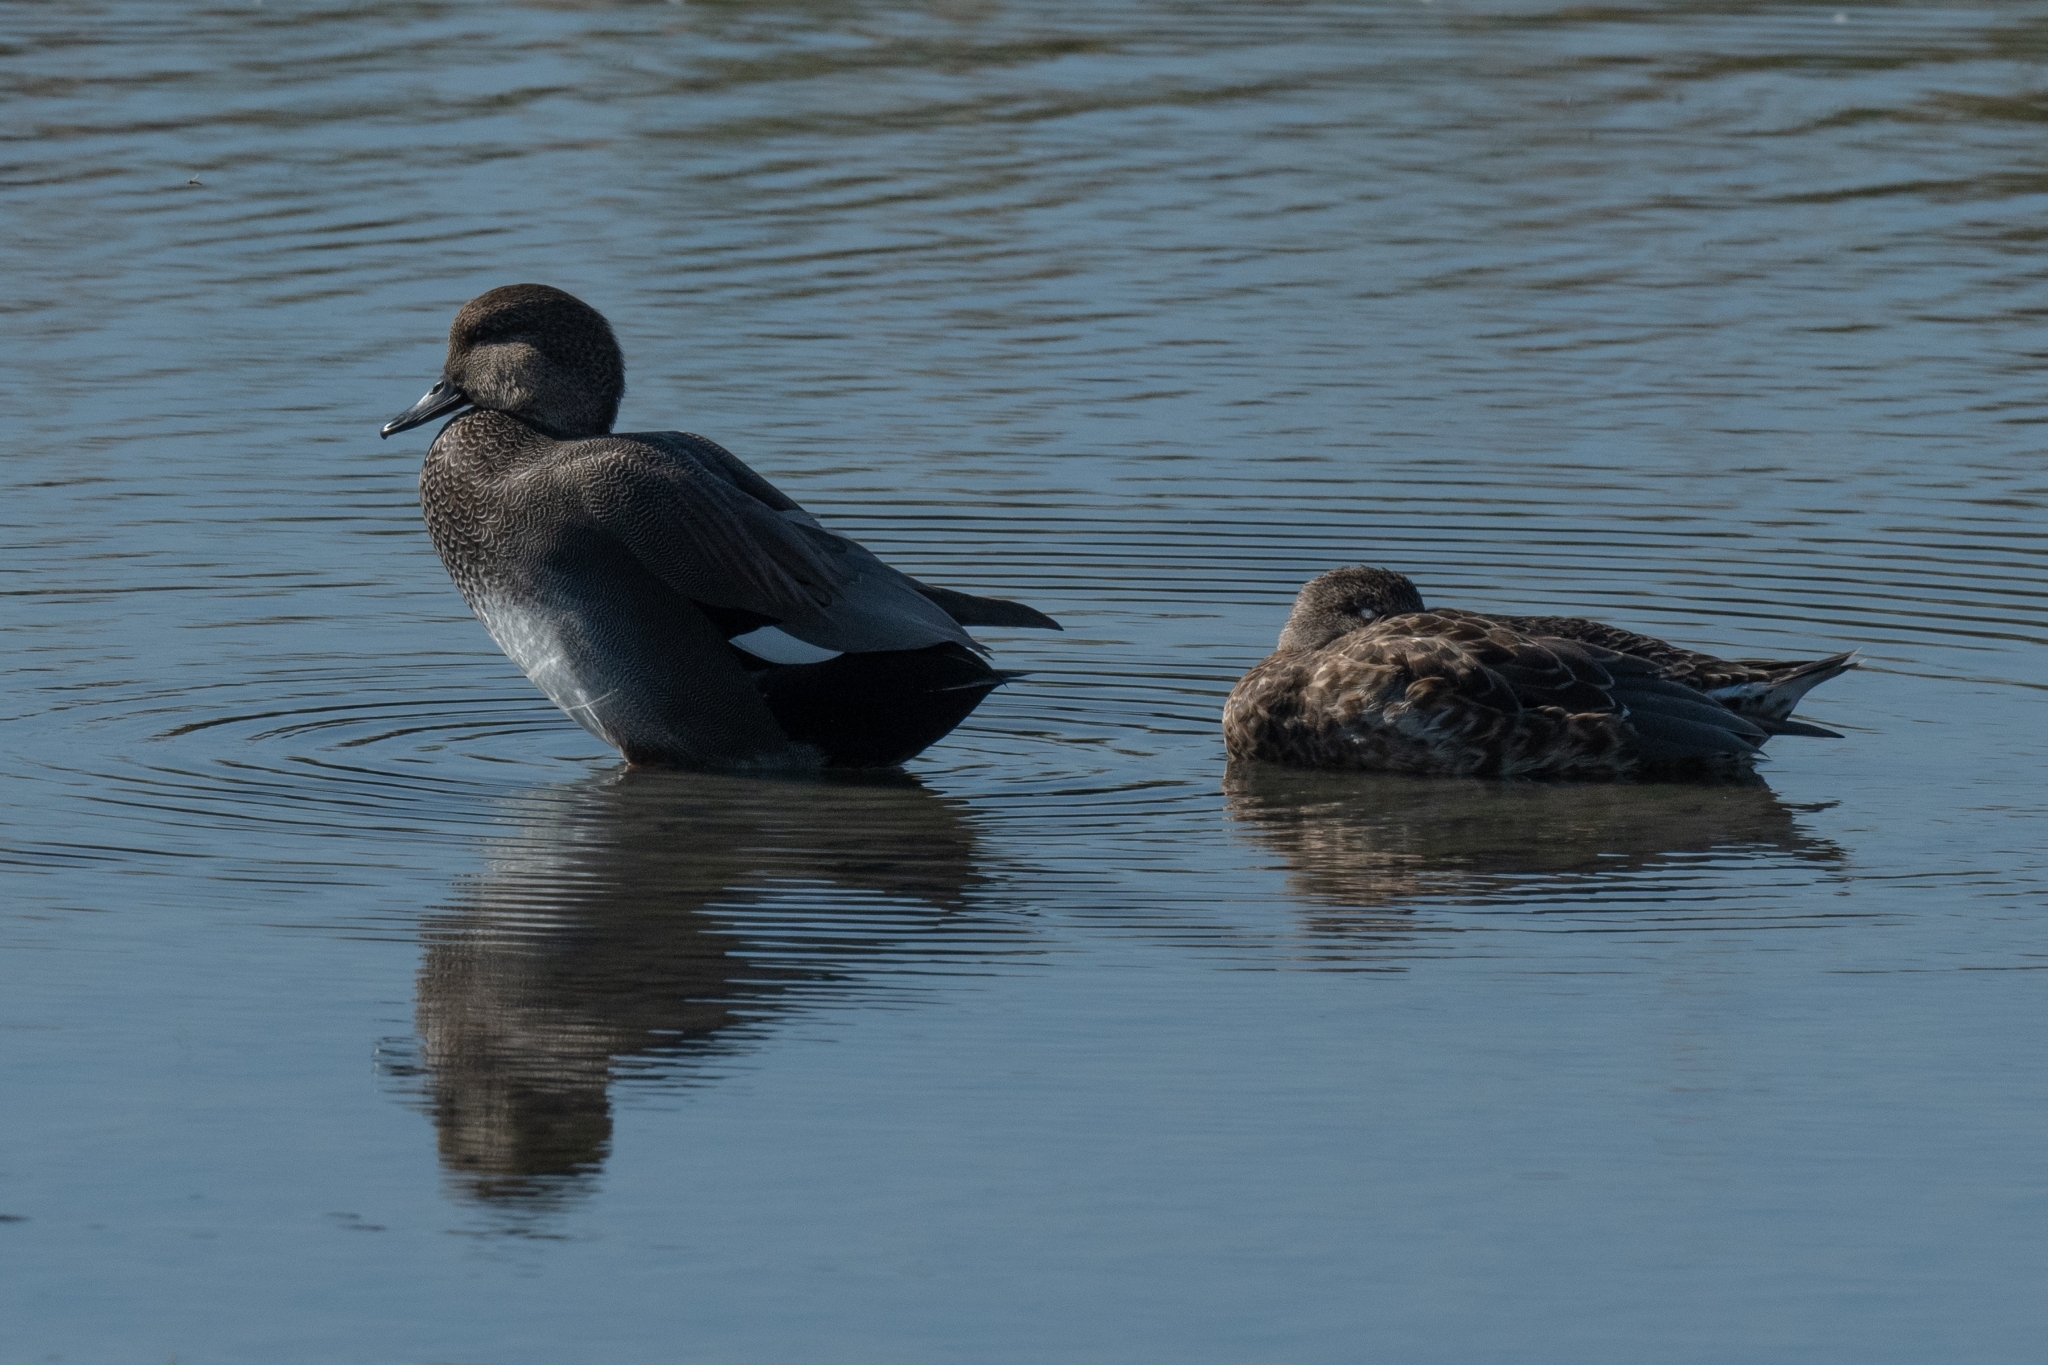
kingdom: Animalia
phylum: Chordata
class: Aves
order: Anseriformes
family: Anatidae
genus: Mareca
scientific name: Mareca strepera
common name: Gadwall
